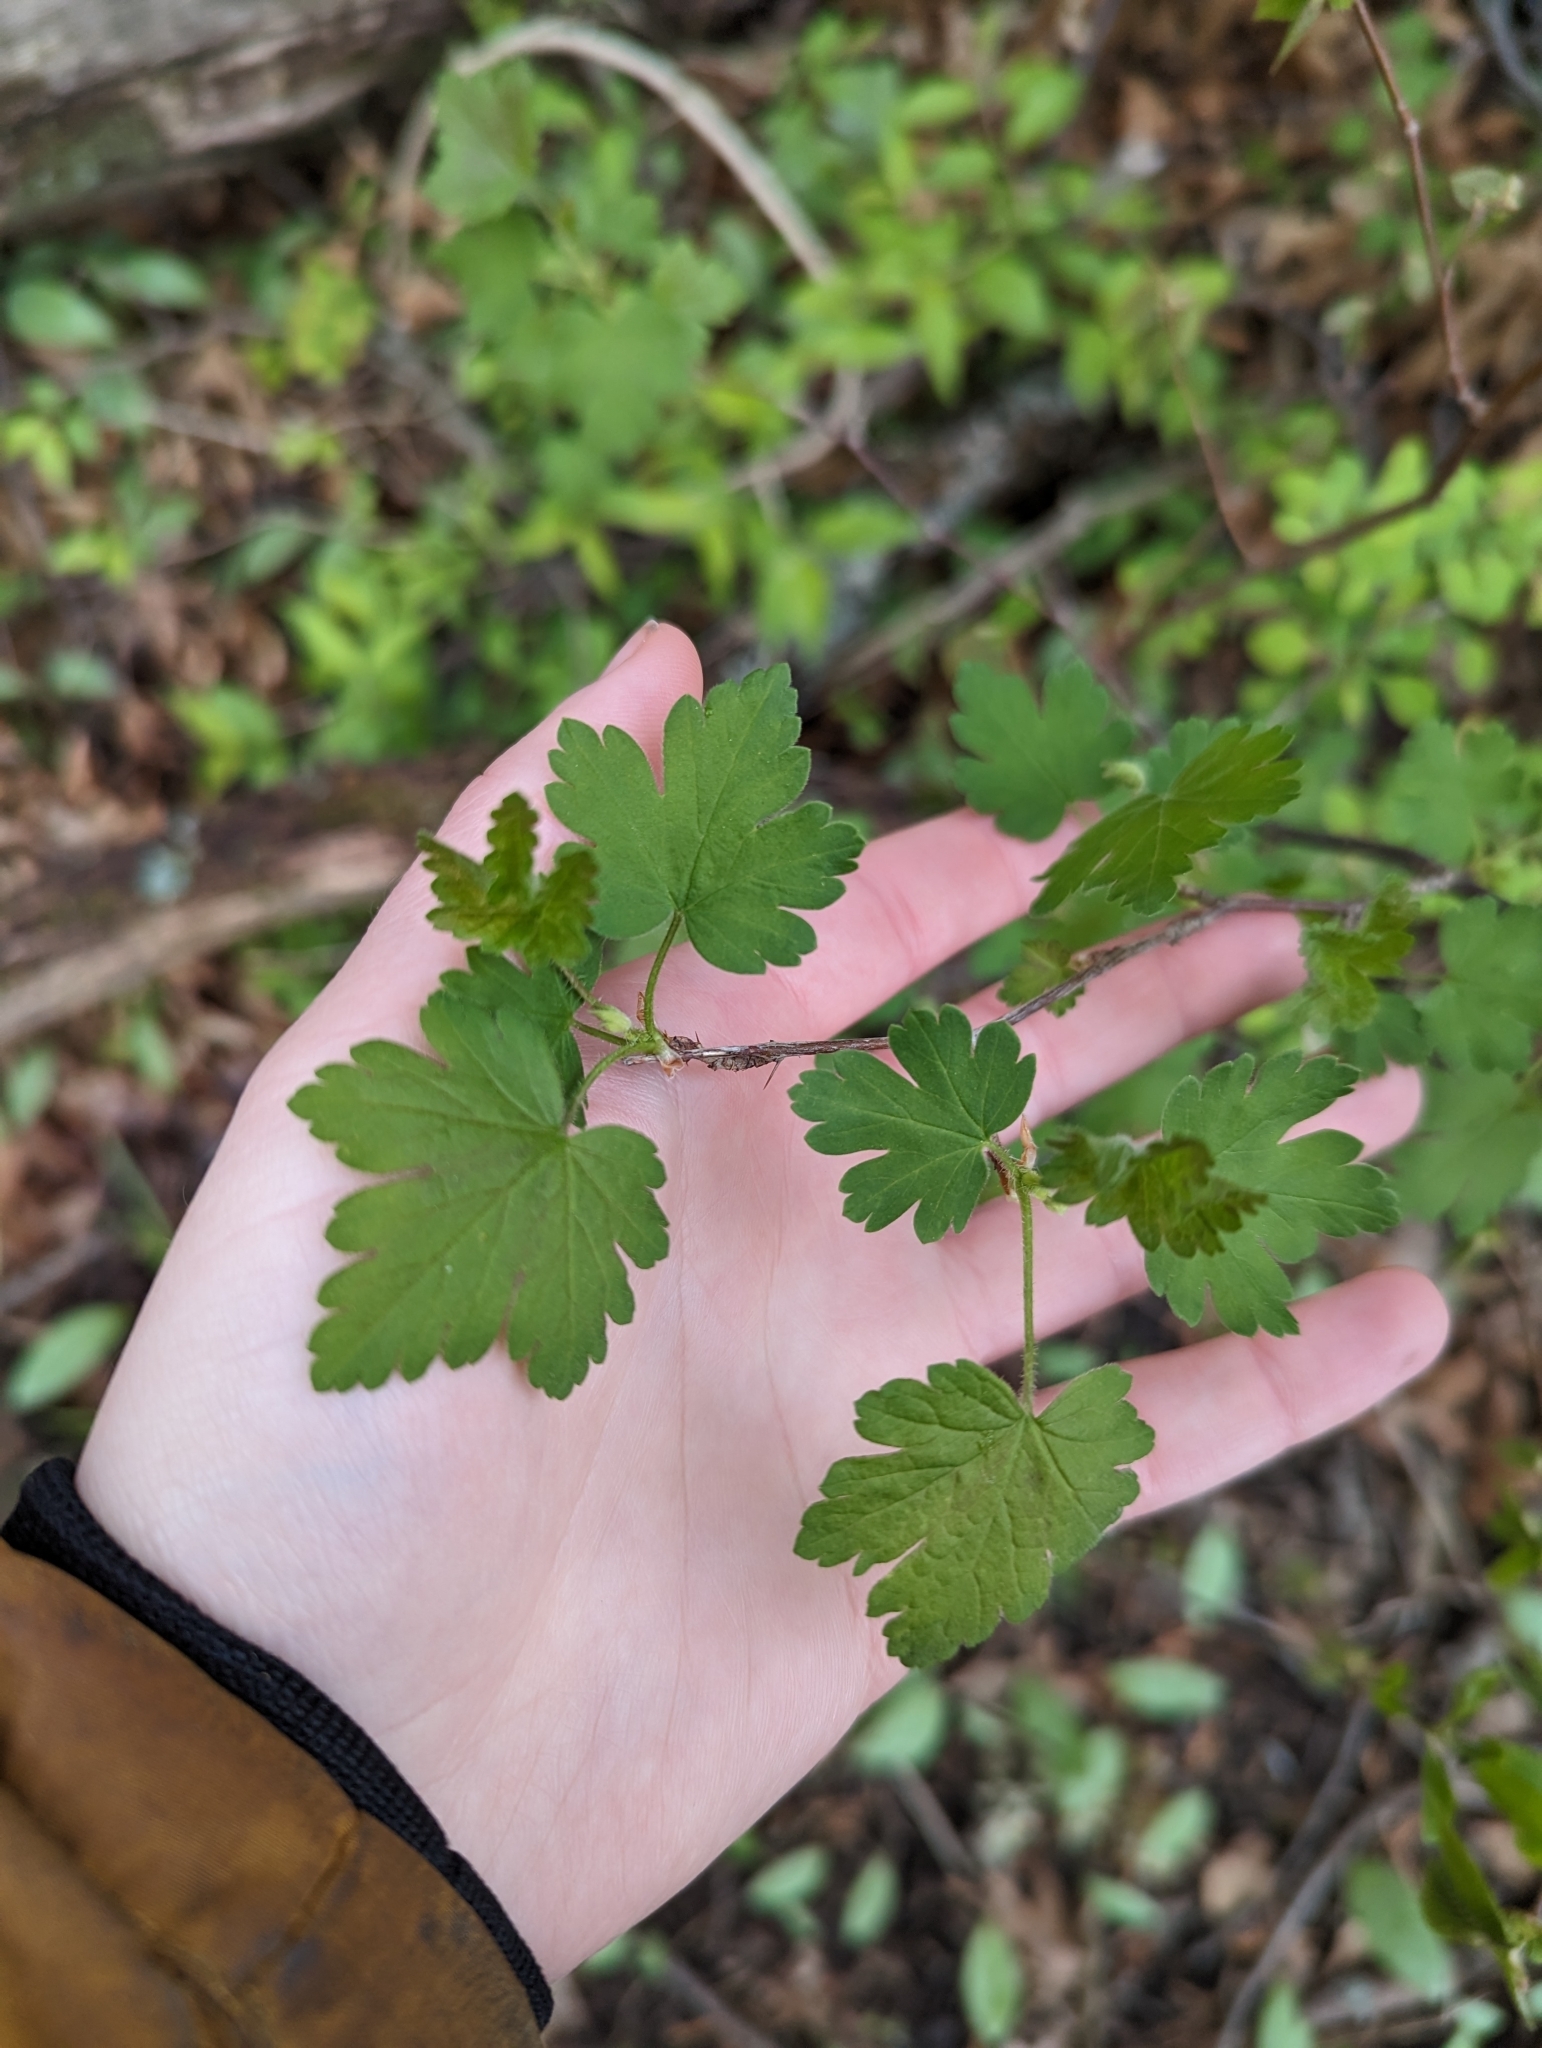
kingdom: Plantae
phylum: Tracheophyta
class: Magnoliopsida
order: Saxifragales
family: Grossulariaceae
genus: Ribes
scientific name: Ribes cynosbati
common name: American gooseberry
